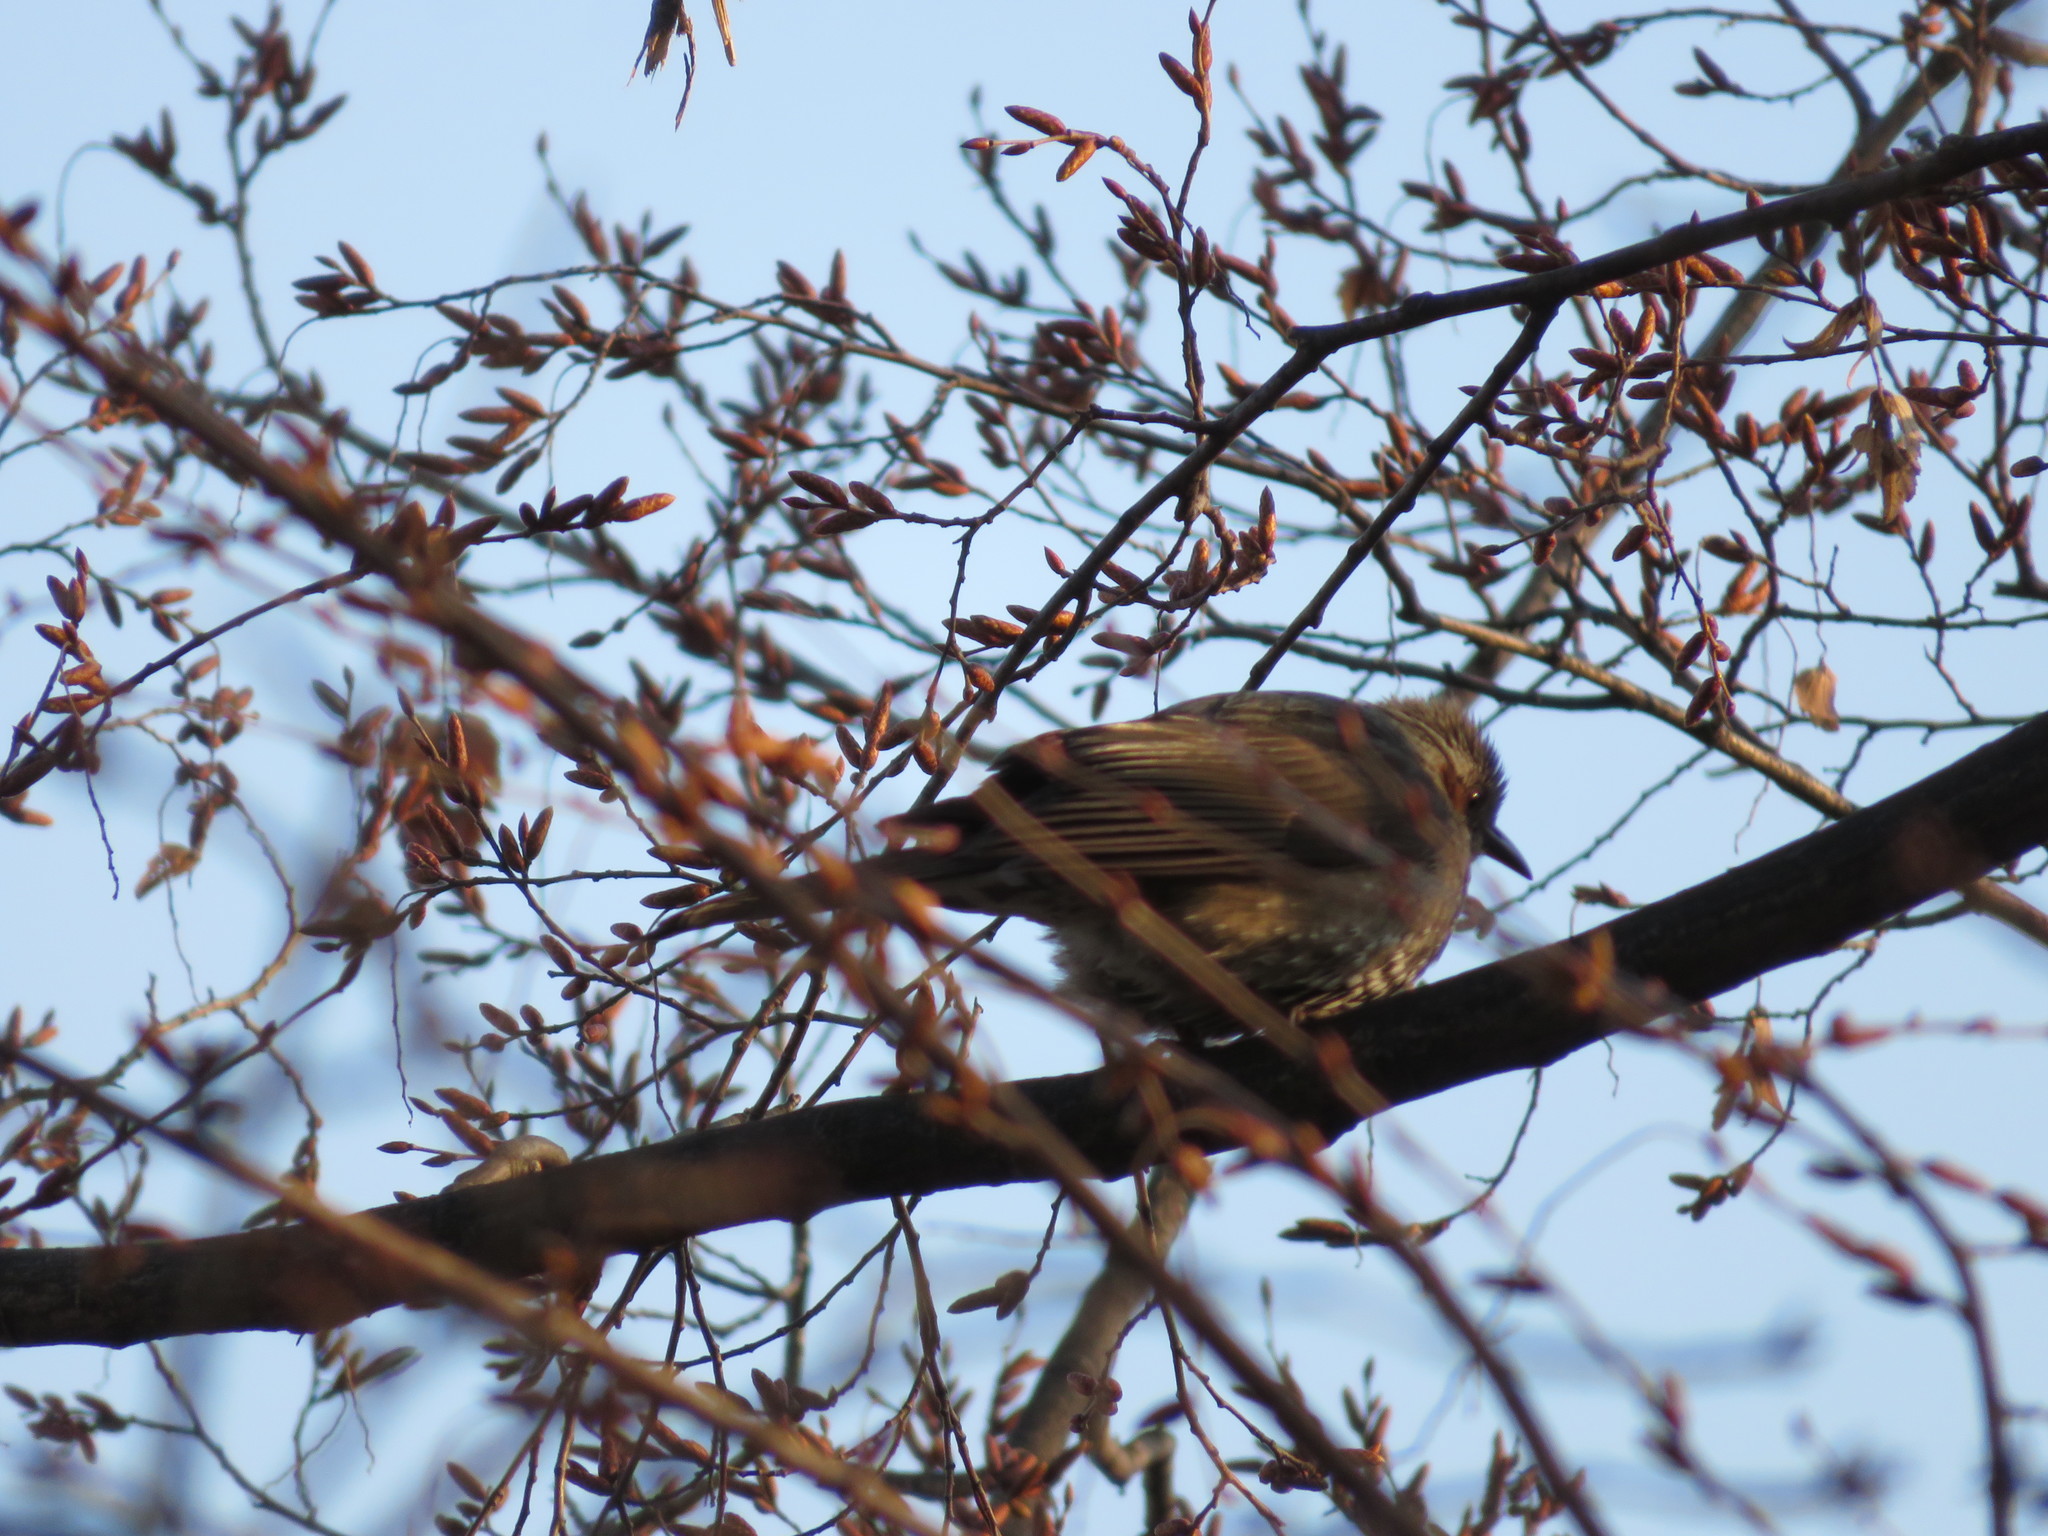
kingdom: Animalia
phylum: Chordata
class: Aves
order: Passeriformes
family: Pycnonotidae
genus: Hypsipetes
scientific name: Hypsipetes amaurotis
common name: Brown-eared bulbul
